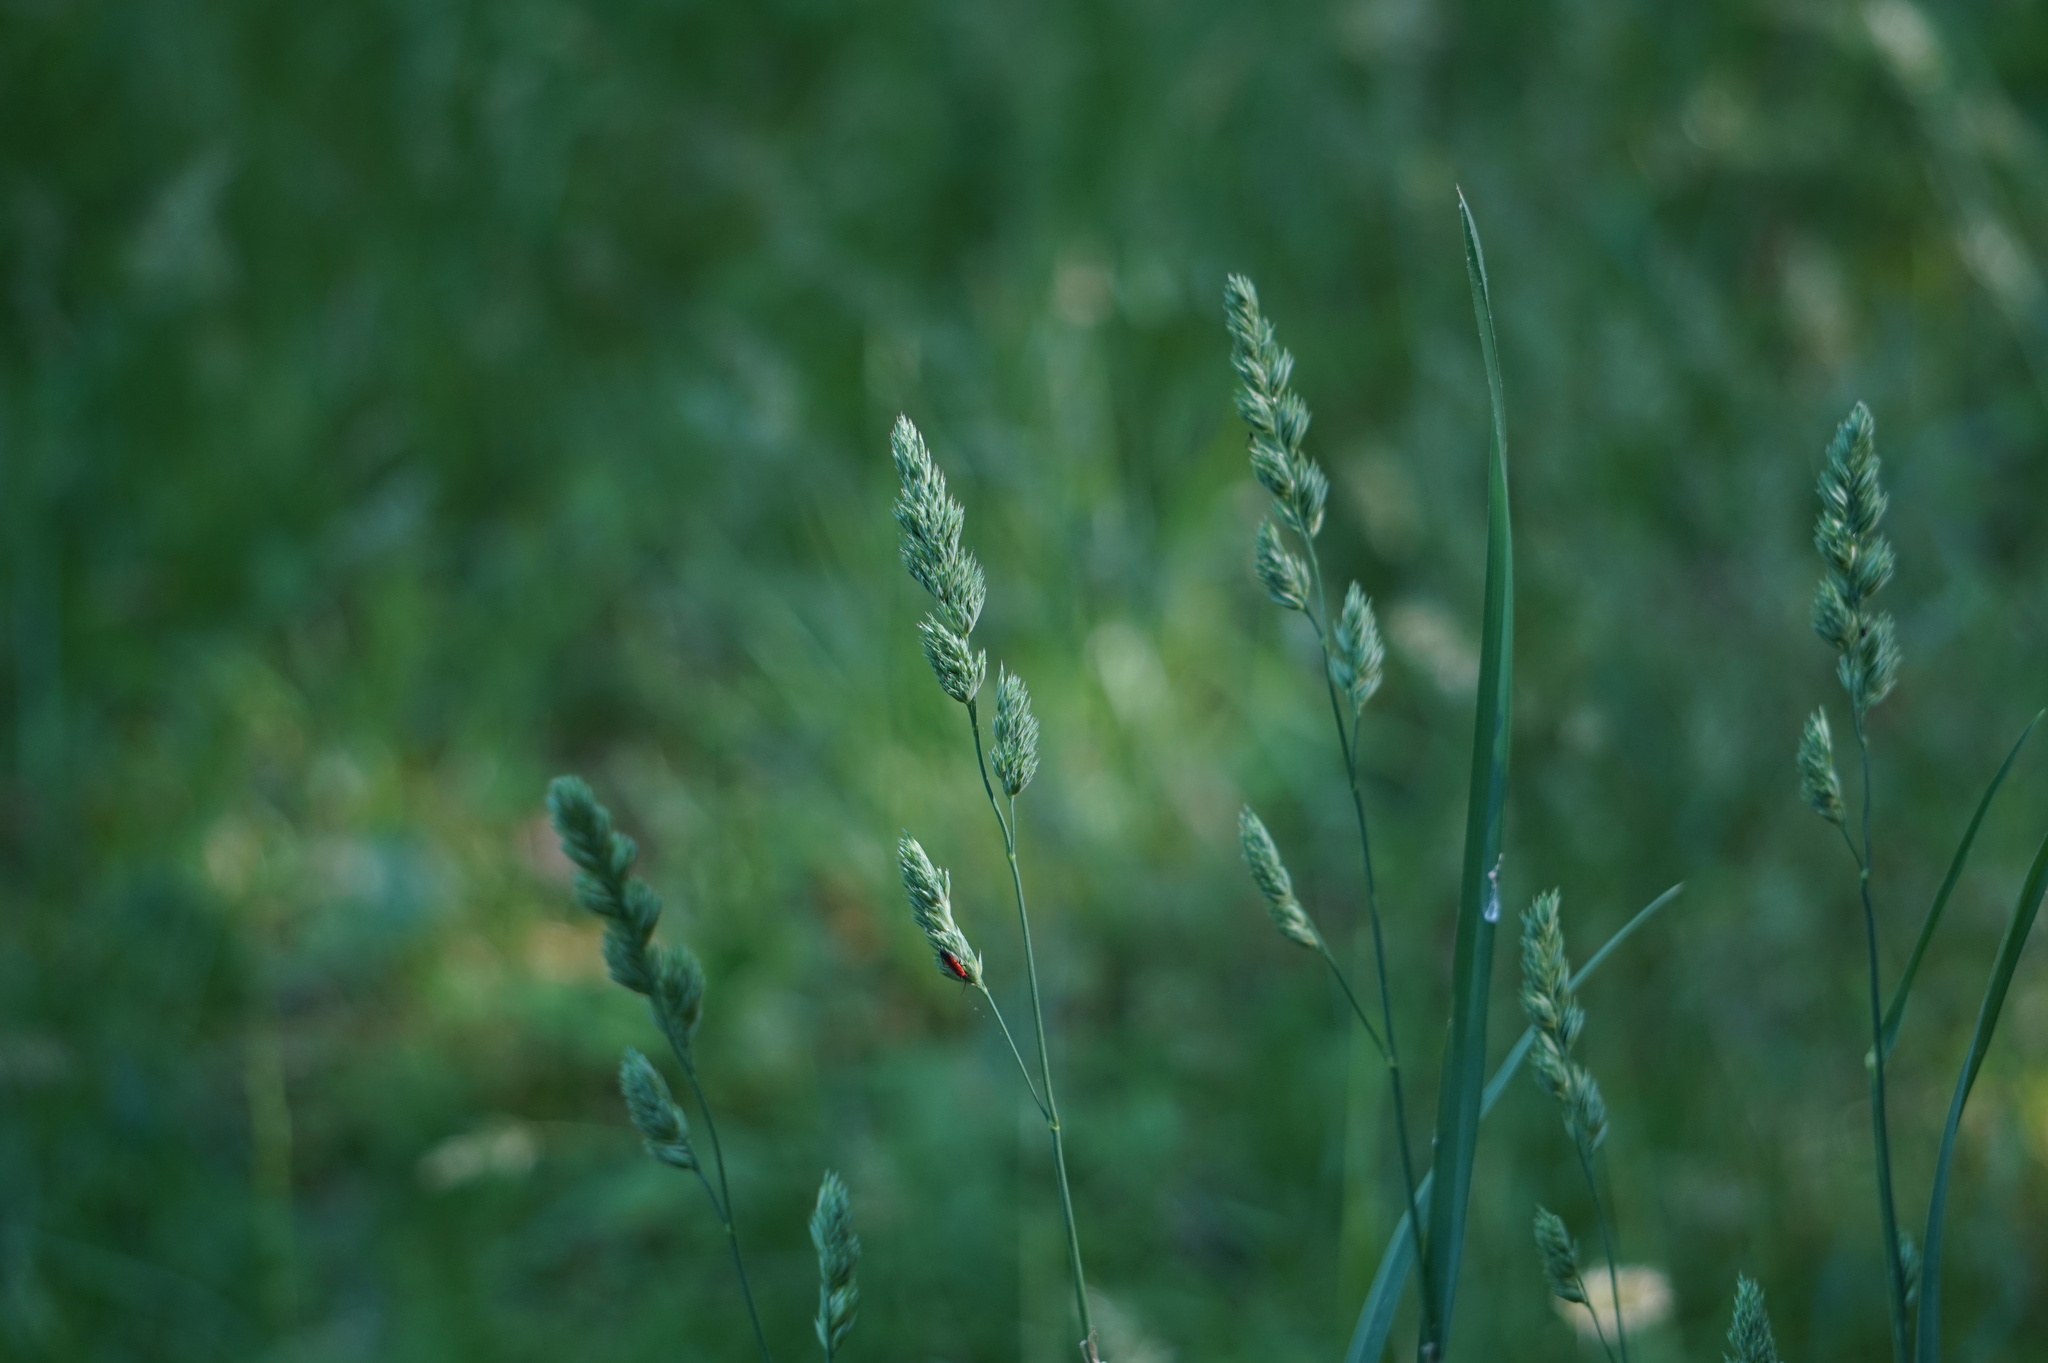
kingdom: Plantae
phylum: Tracheophyta
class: Liliopsida
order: Poales
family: Poaceae
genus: Dactylis
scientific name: Dactylis glomerata
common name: Orchardgrass
